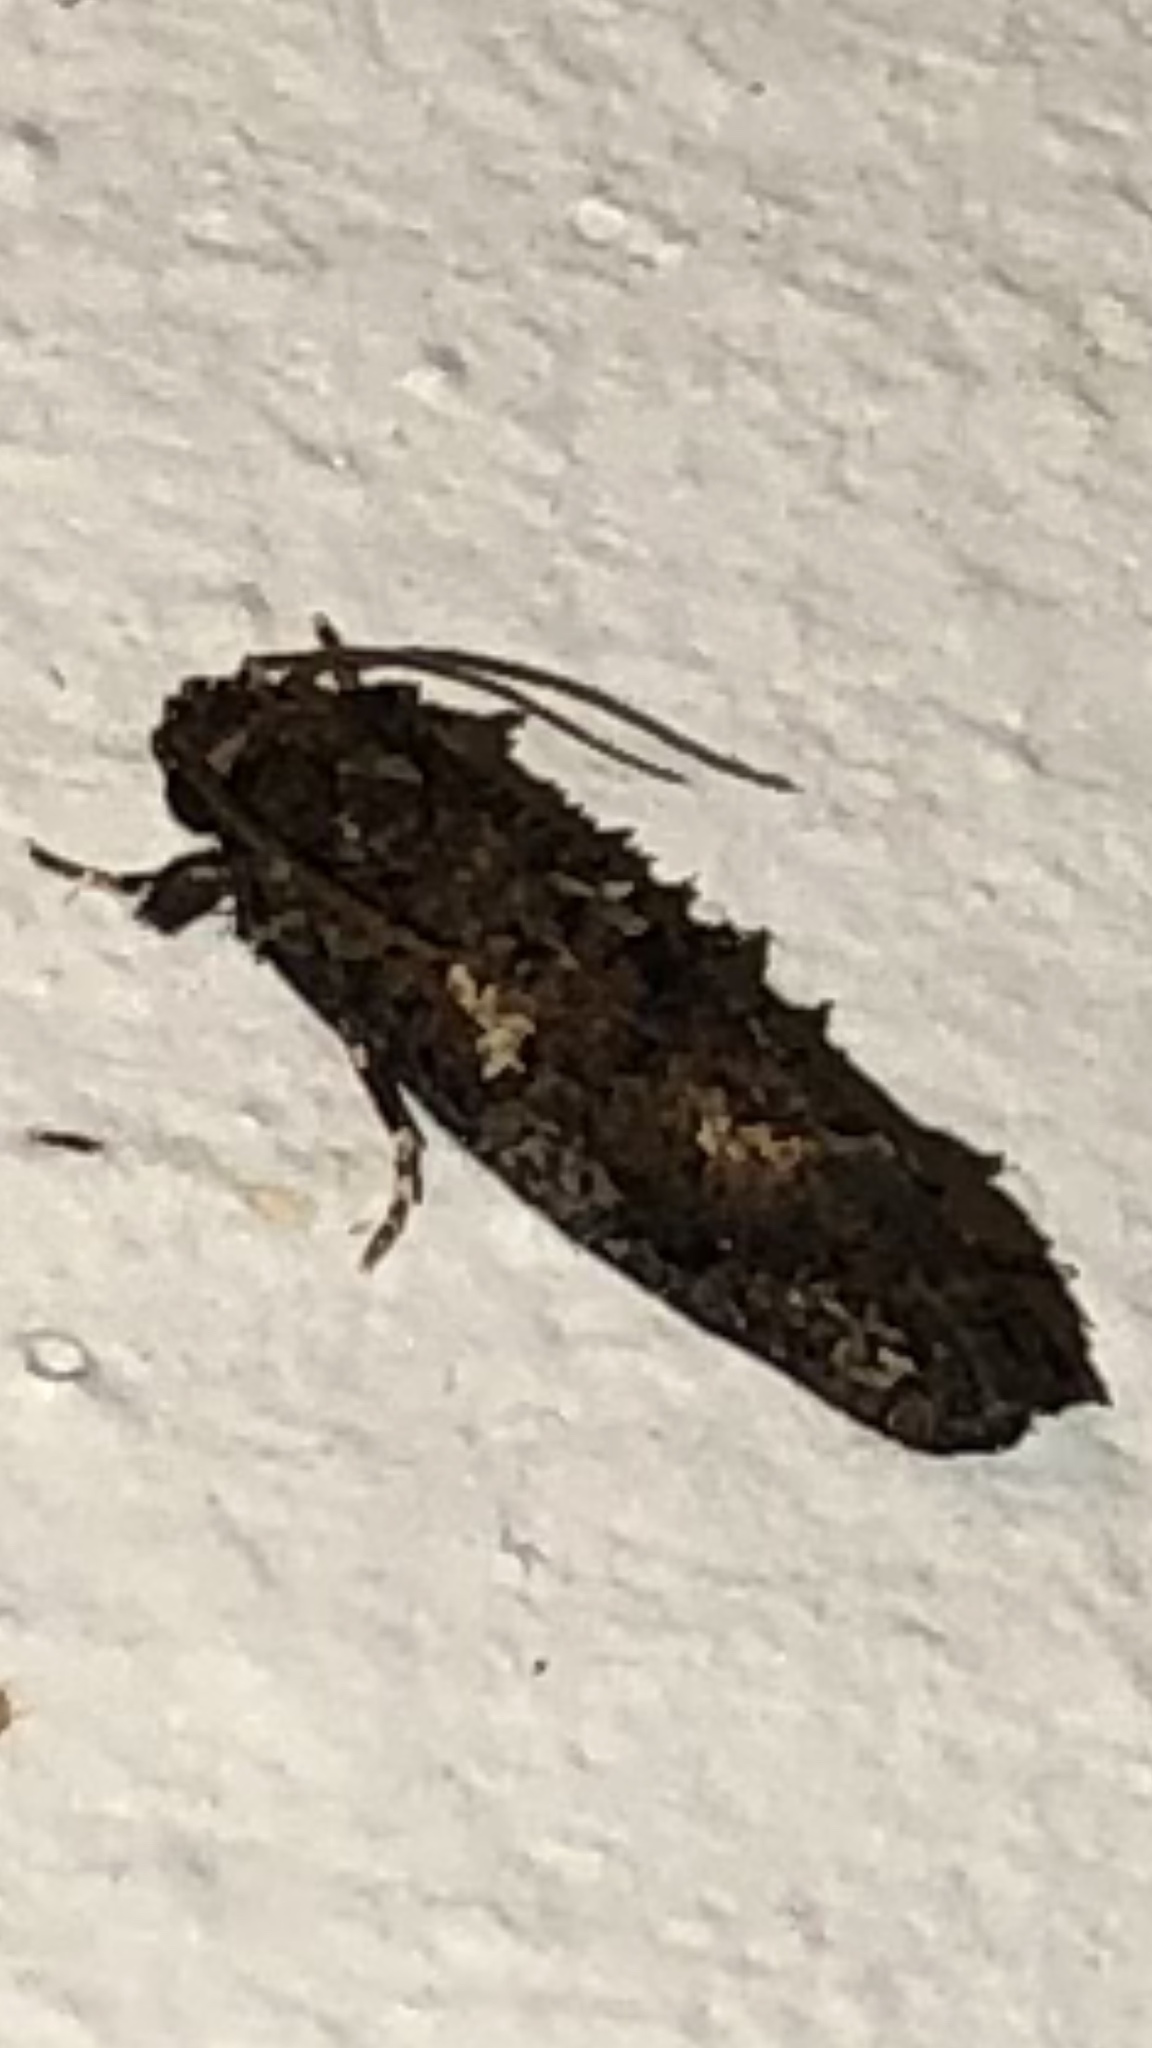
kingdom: Animalia
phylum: Arthropoda
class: Insecta
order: Lepidoptera
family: Tineidae
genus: Acrolophus
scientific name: Acrolophus cressoni
